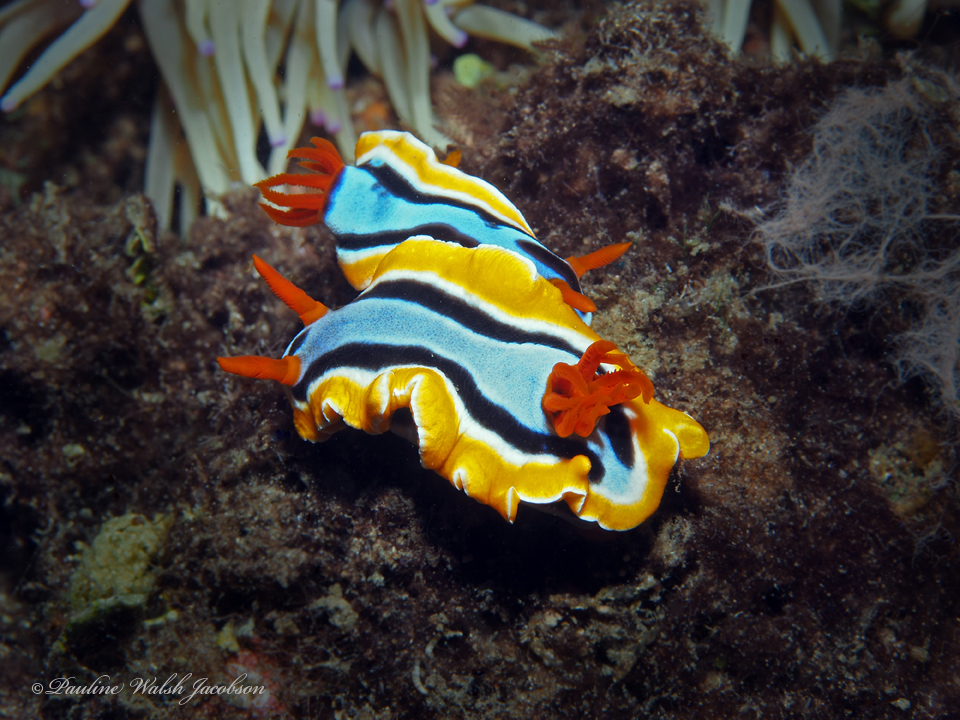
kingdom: Animalia
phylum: Mollusca
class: Gastropoda
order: Nudibranchia
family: Chromodorididae
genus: Chromodoris
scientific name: Chromodoris annae
